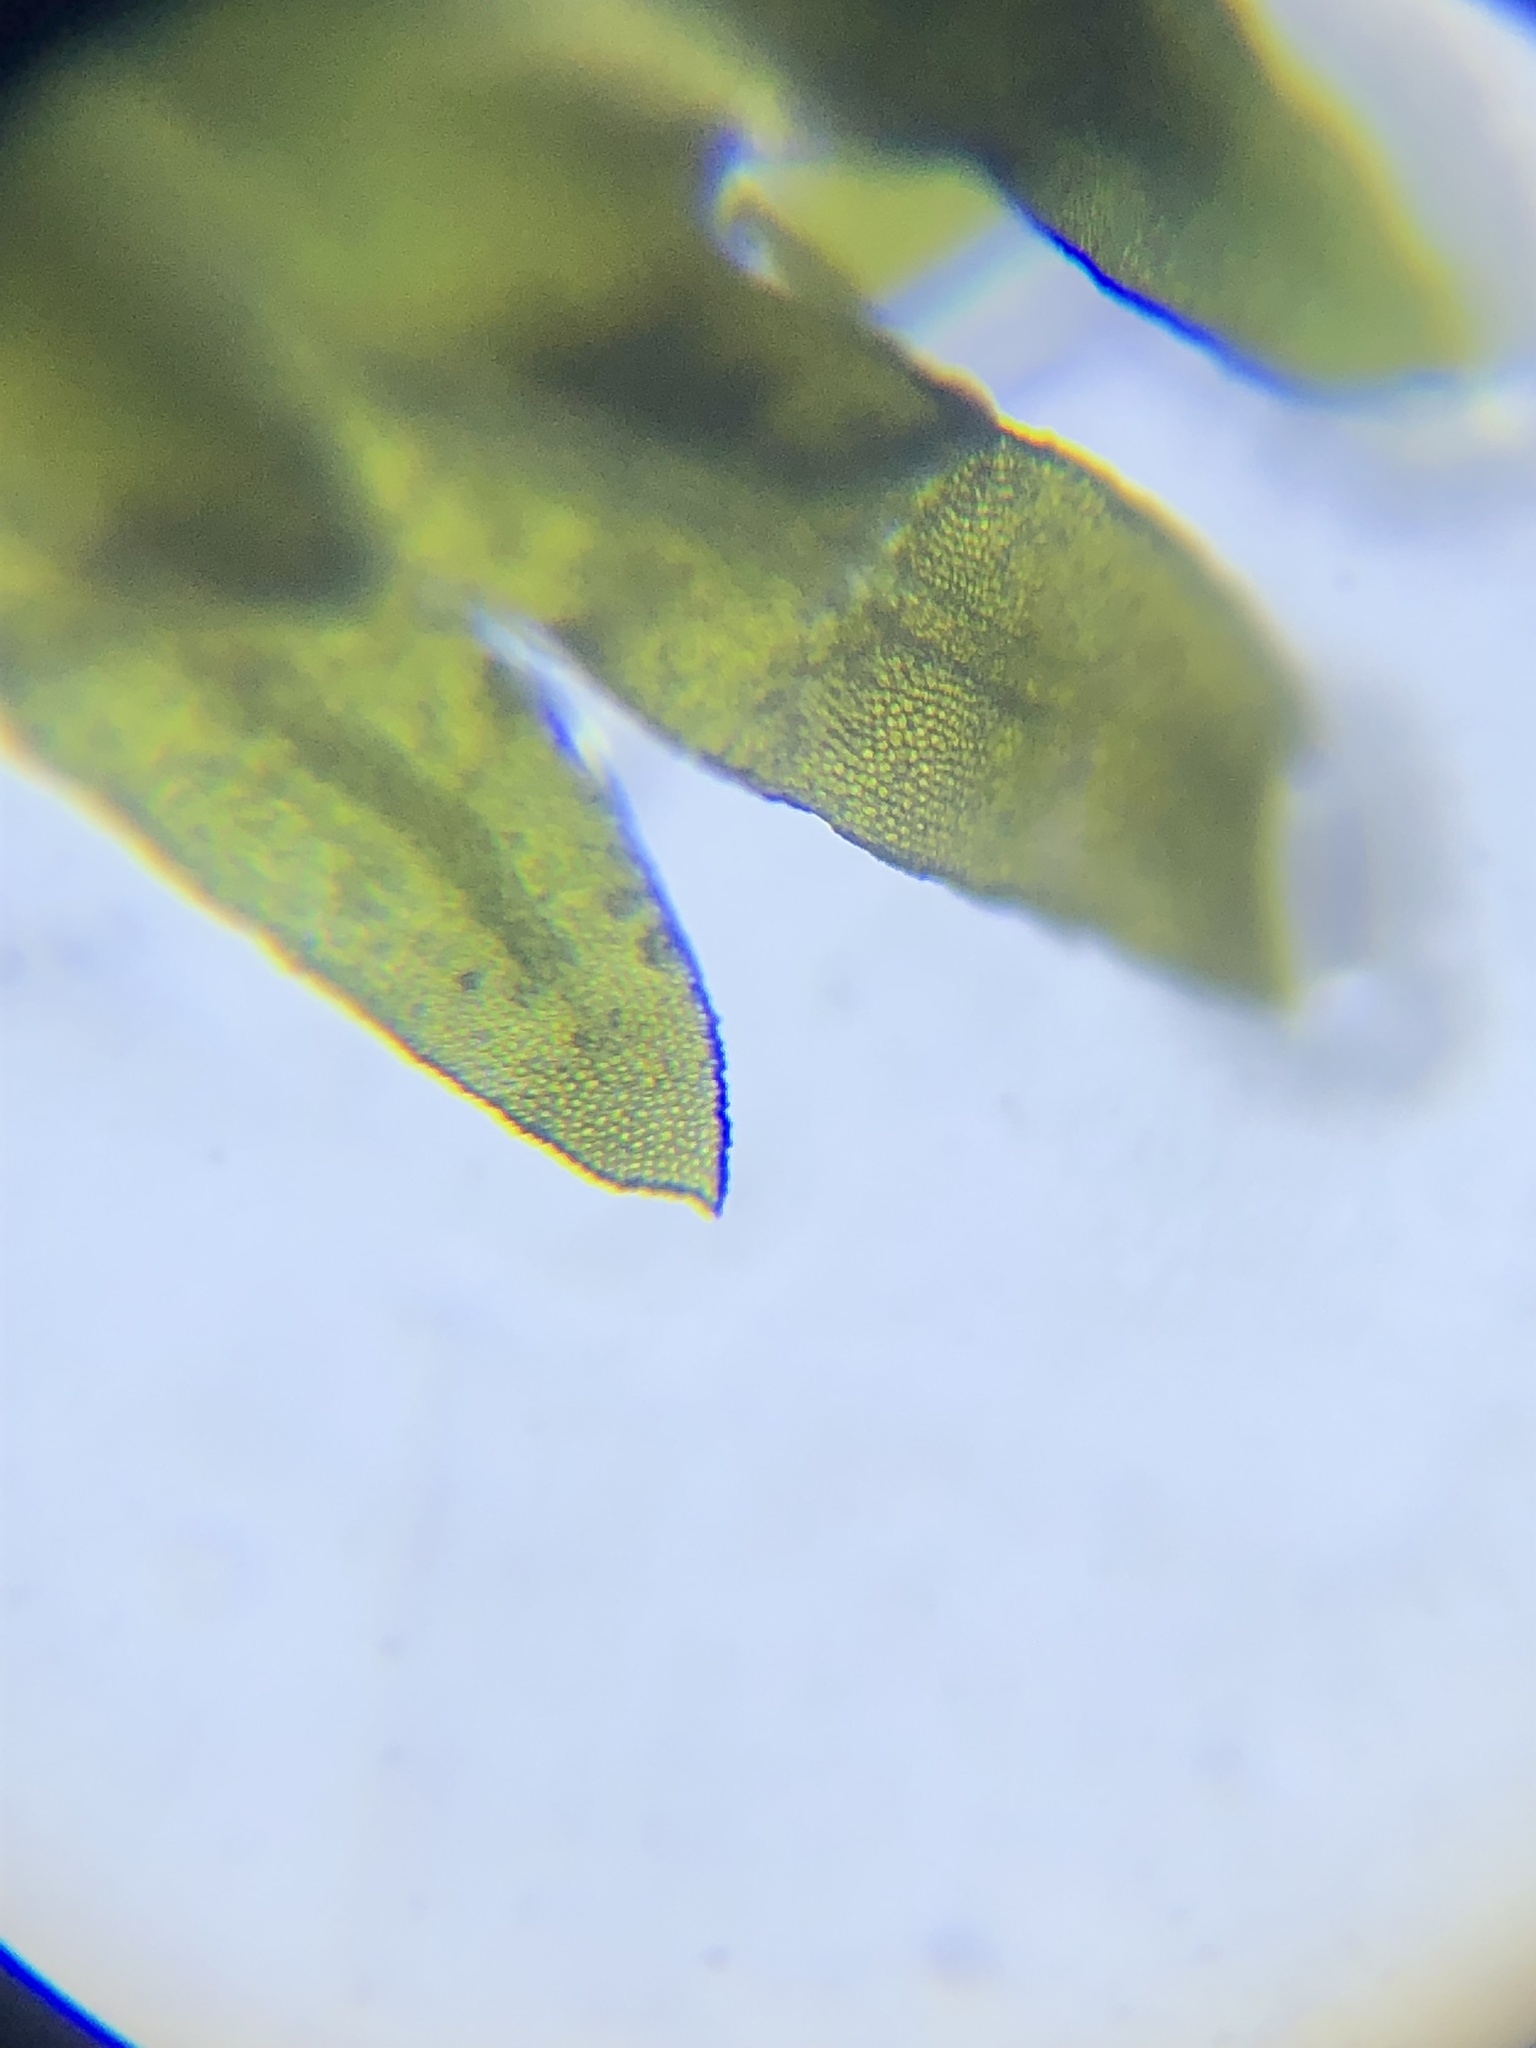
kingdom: Plantae
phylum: Bryophyta
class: Bryopsida
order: Dicranales
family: Fissidentaceae
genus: Fissidens
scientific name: Fissidens subbasilaris
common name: Tree pocket moss
